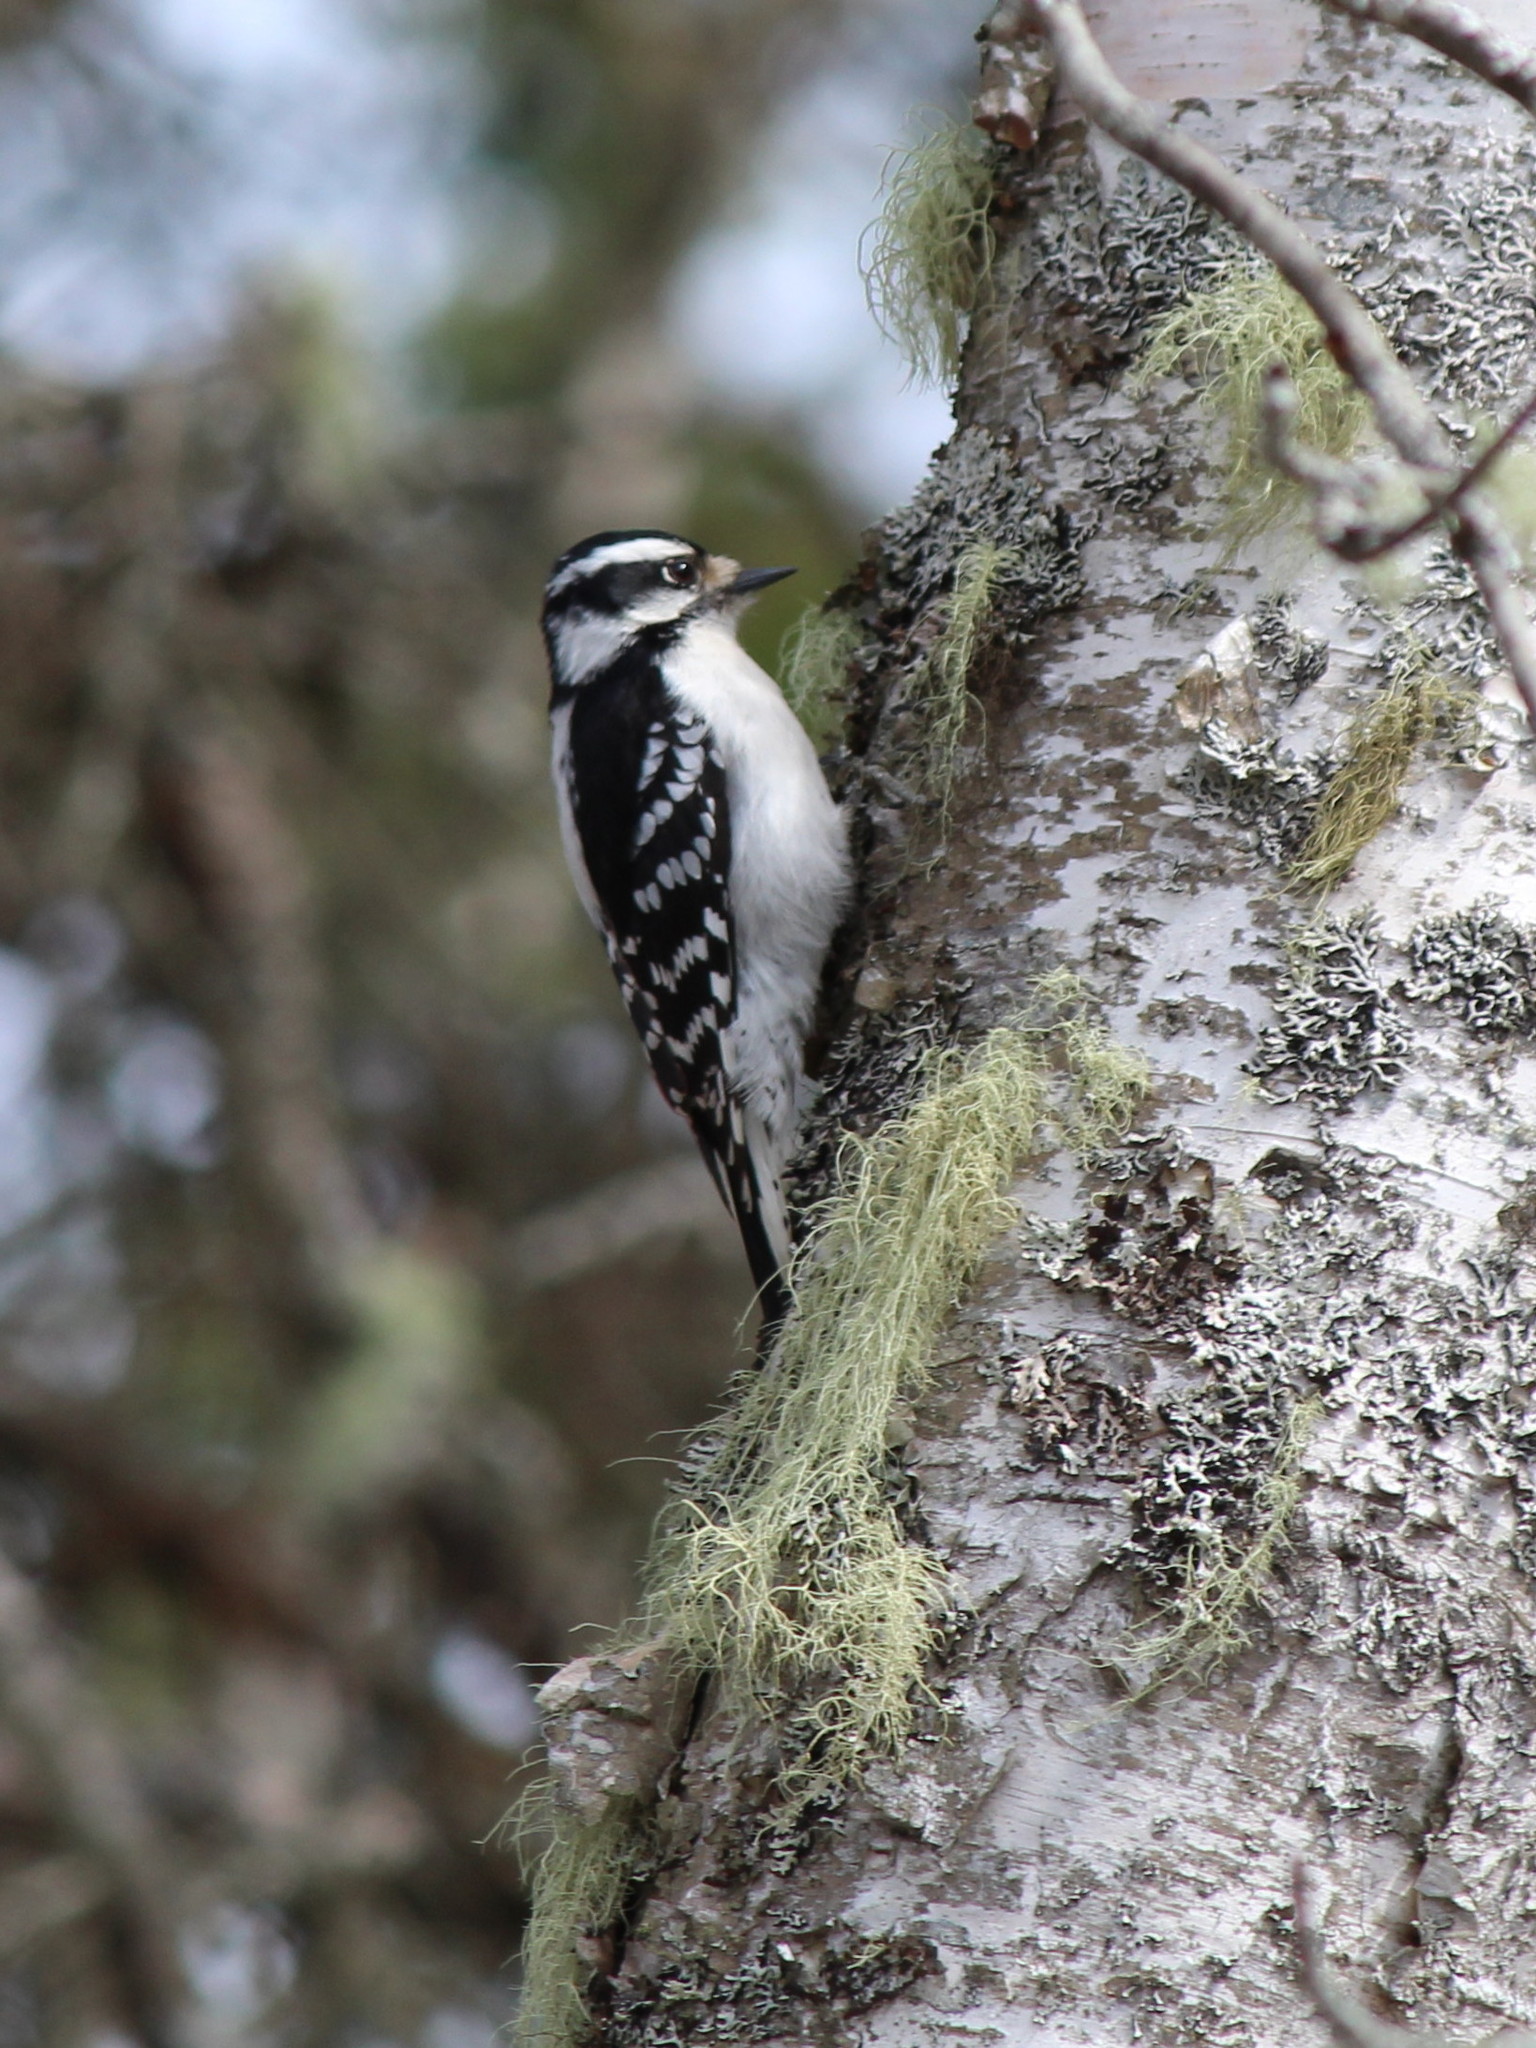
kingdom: Animalia
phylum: Chordata
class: Aves
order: Piciformes
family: Picidae
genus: Dryobates
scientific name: Dryobates pubescens
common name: Downy woodpecker
